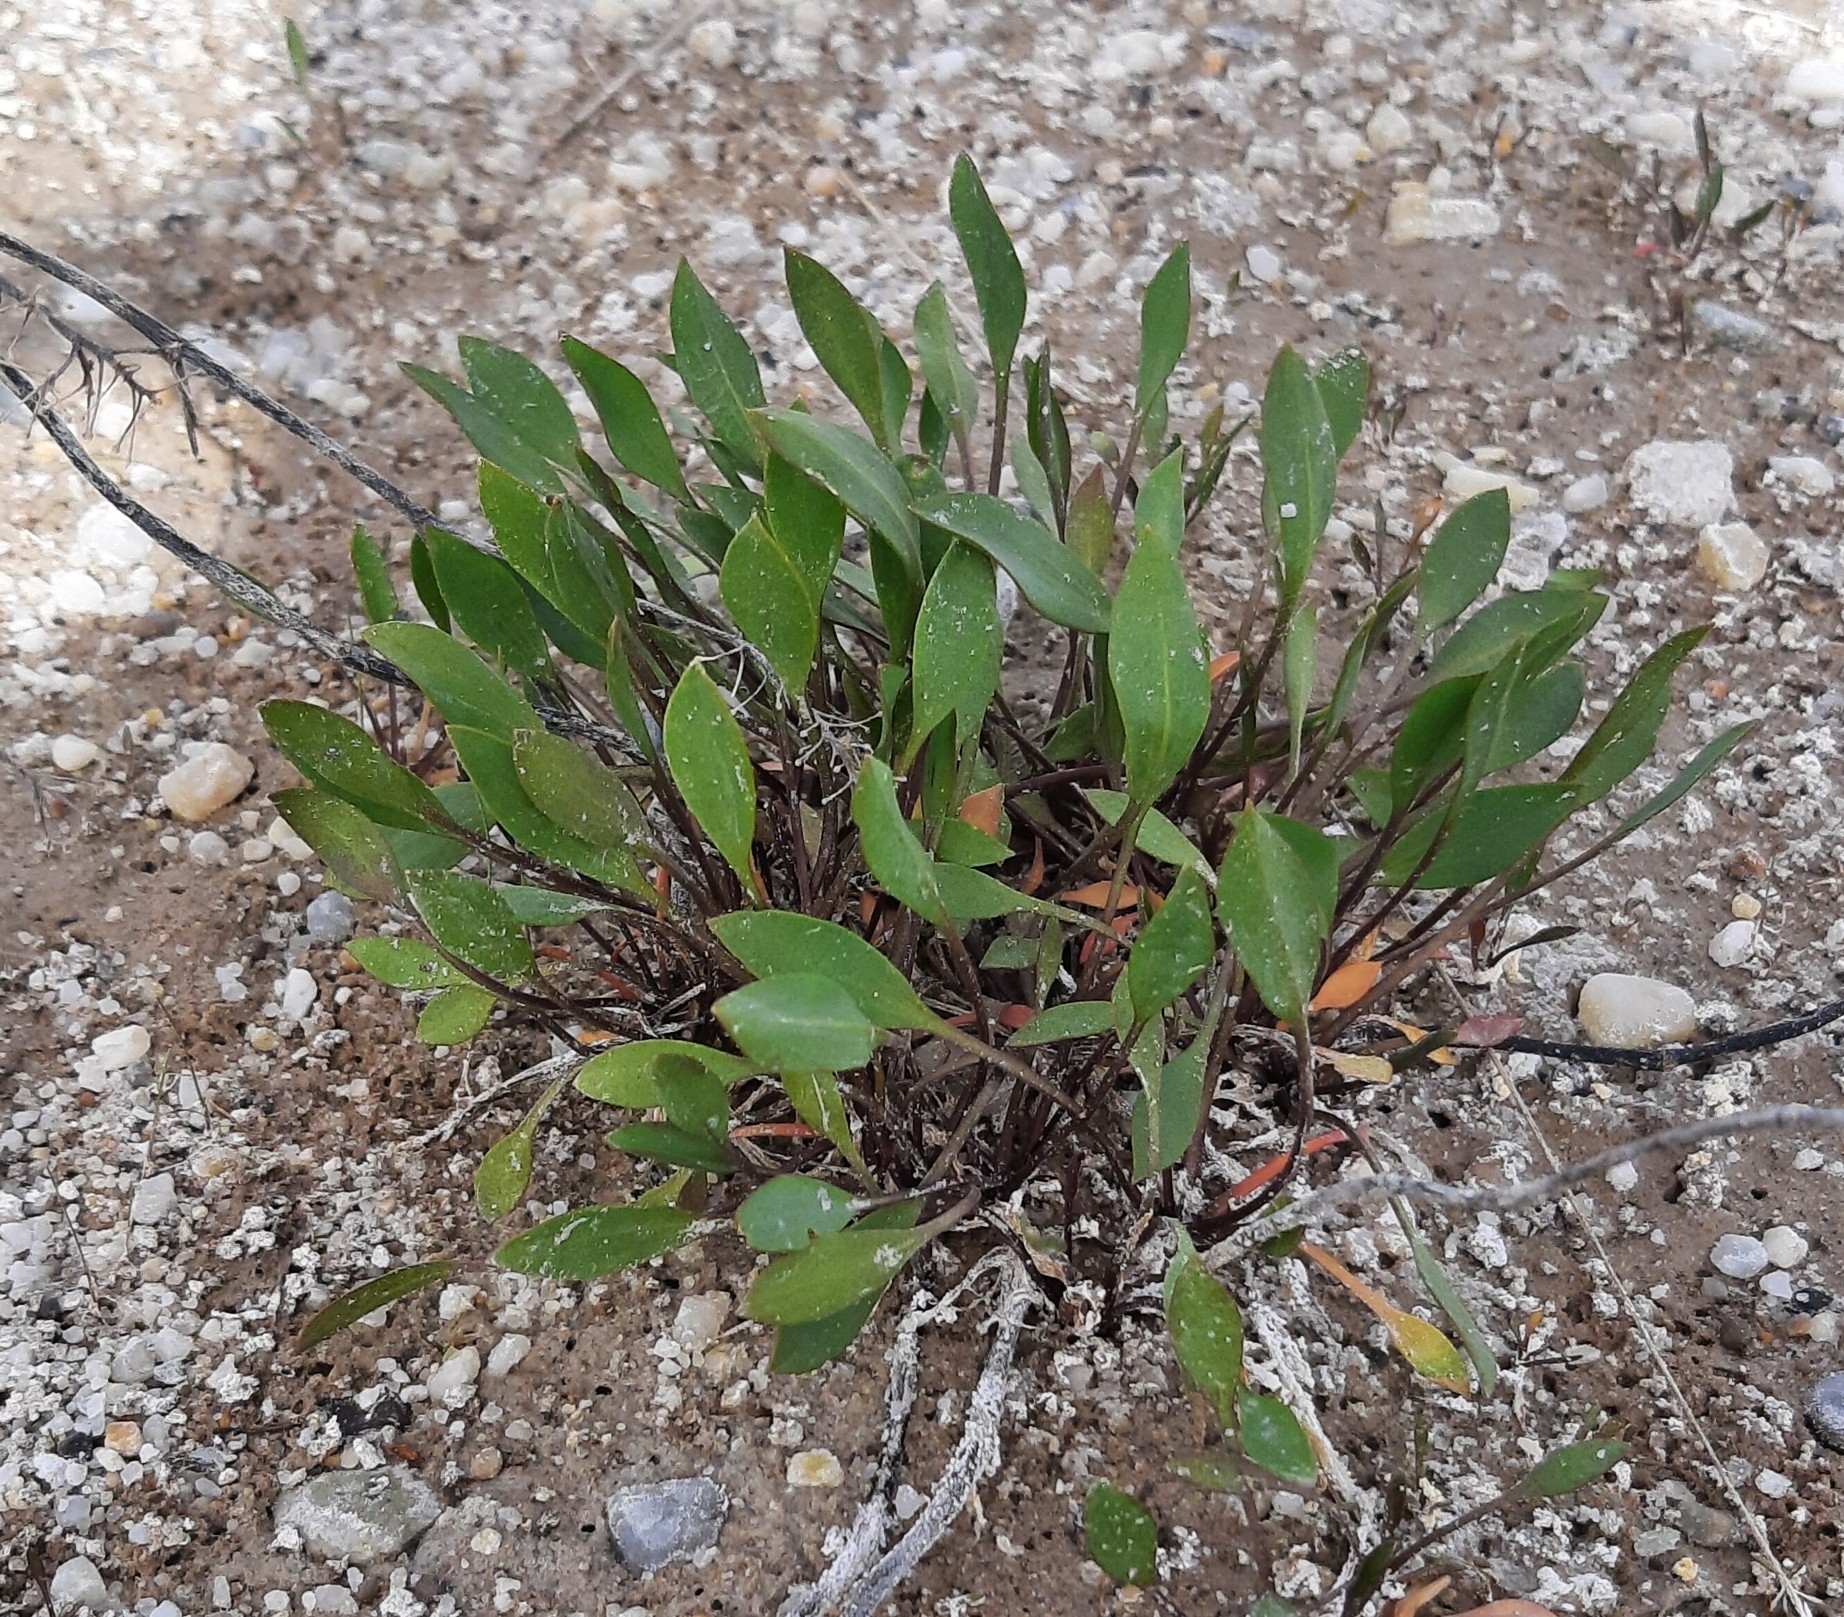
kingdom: Plantae
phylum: Tracheophyta
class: Magnoliopsida
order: Brassicales
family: Brassicaceae
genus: Lepidium
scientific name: Lepidium cartilagineum
